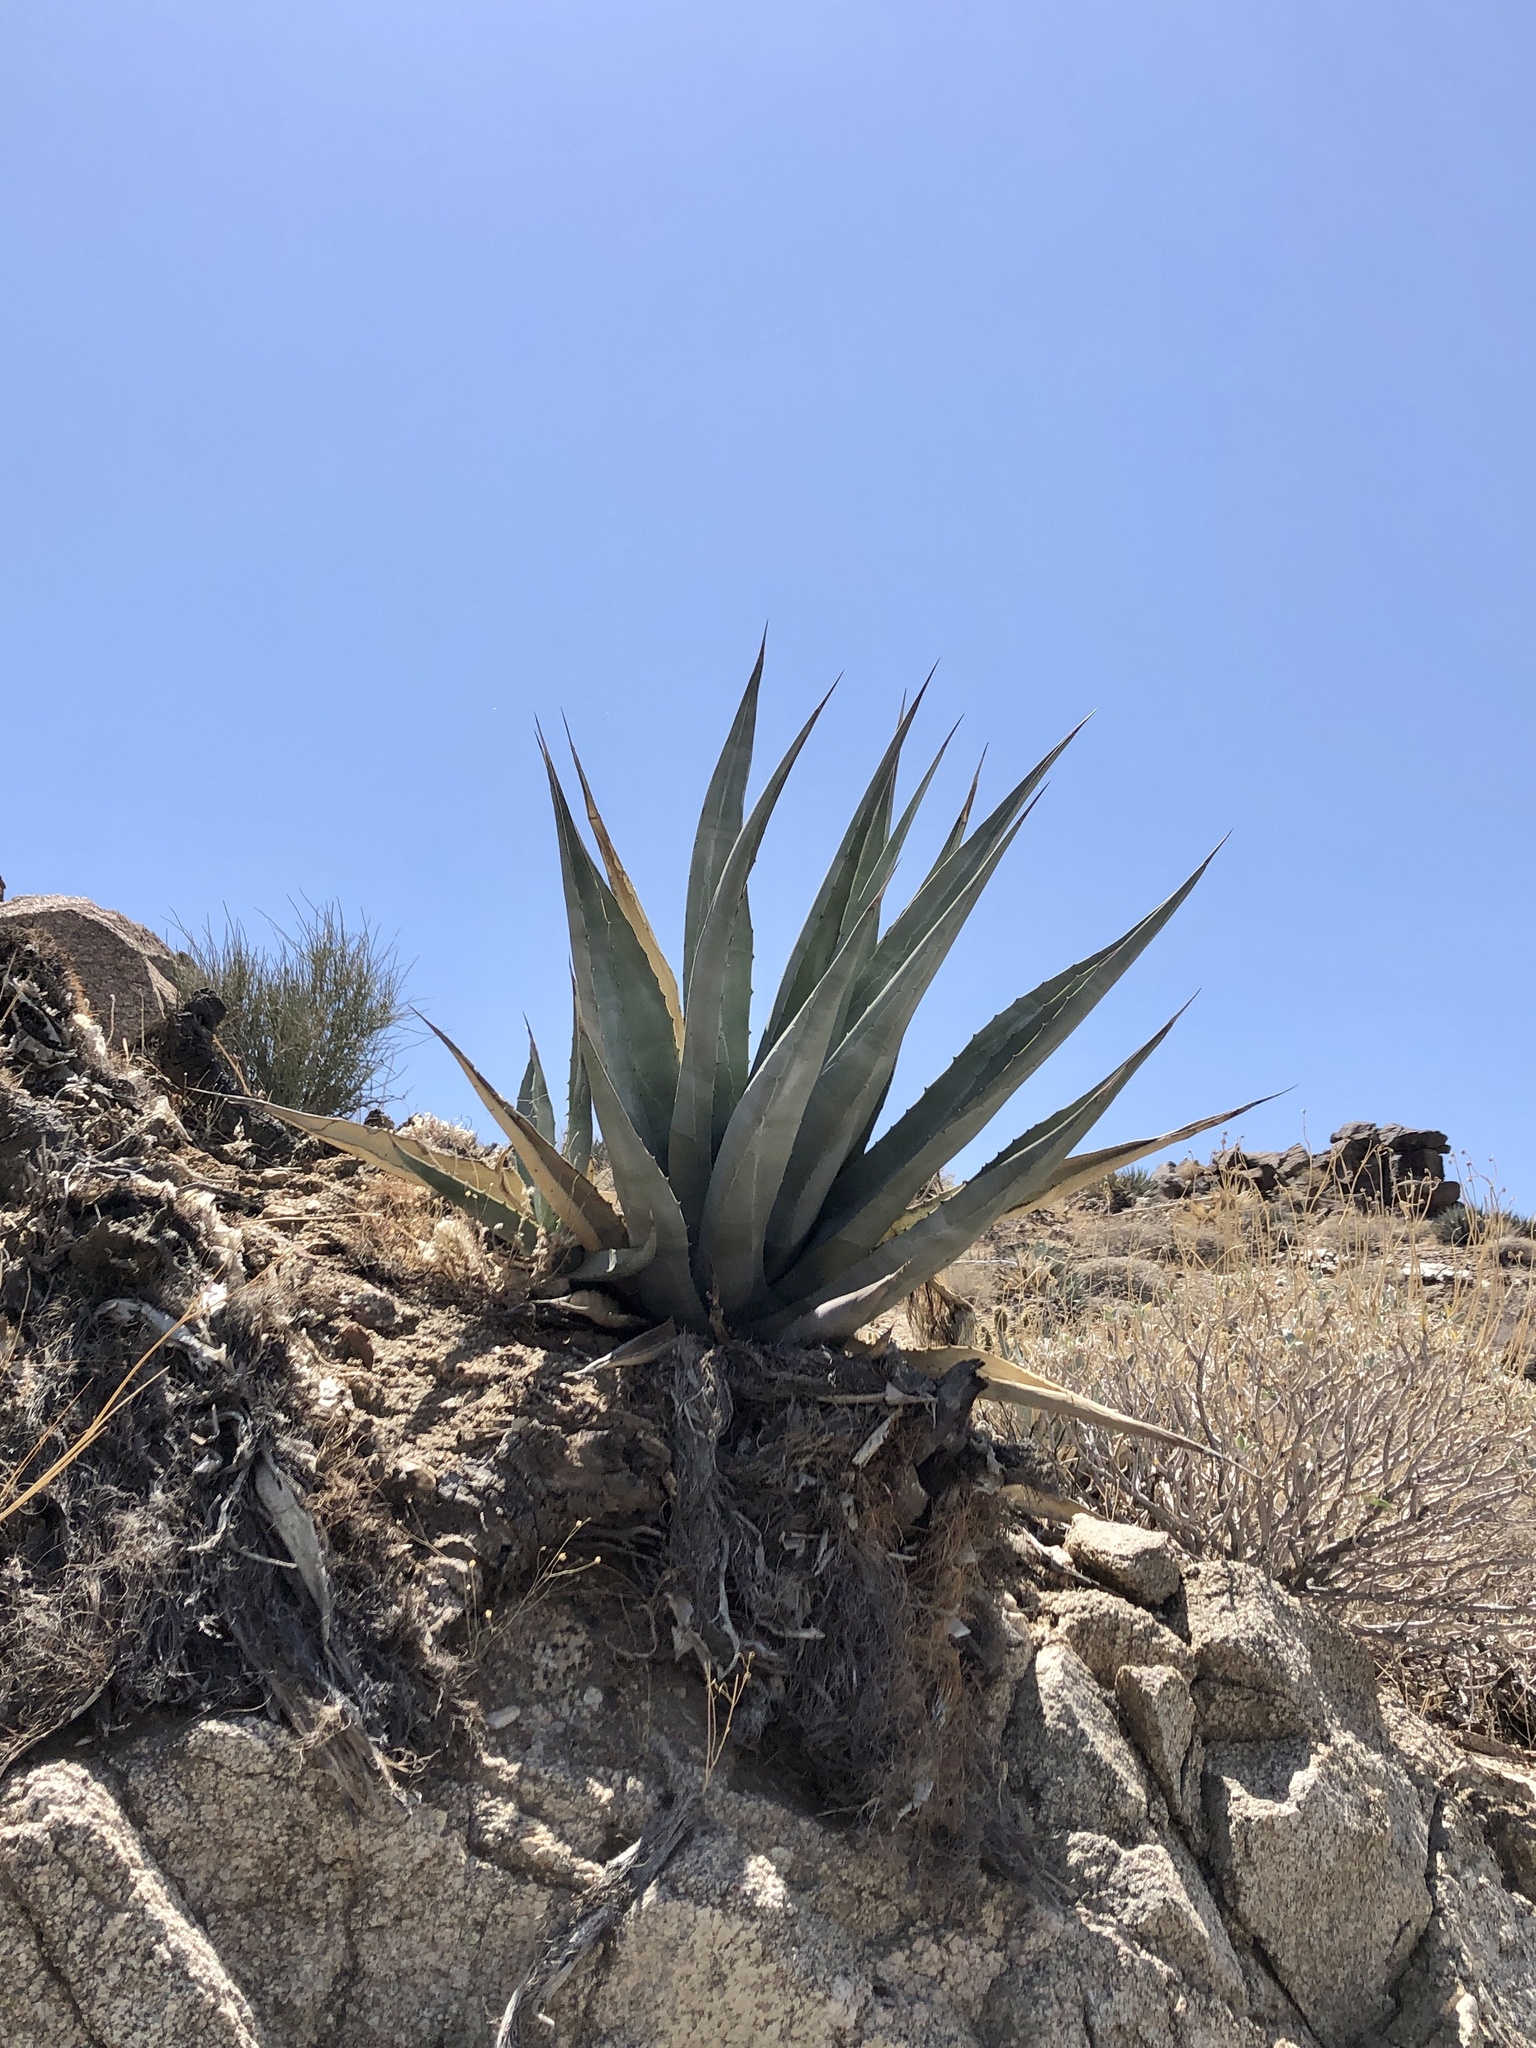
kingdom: Plantae
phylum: Tracheophyta
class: Liliopsida
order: Asparagales
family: Asparagaceae
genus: Agave
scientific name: Agave deserti
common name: Desert agave
